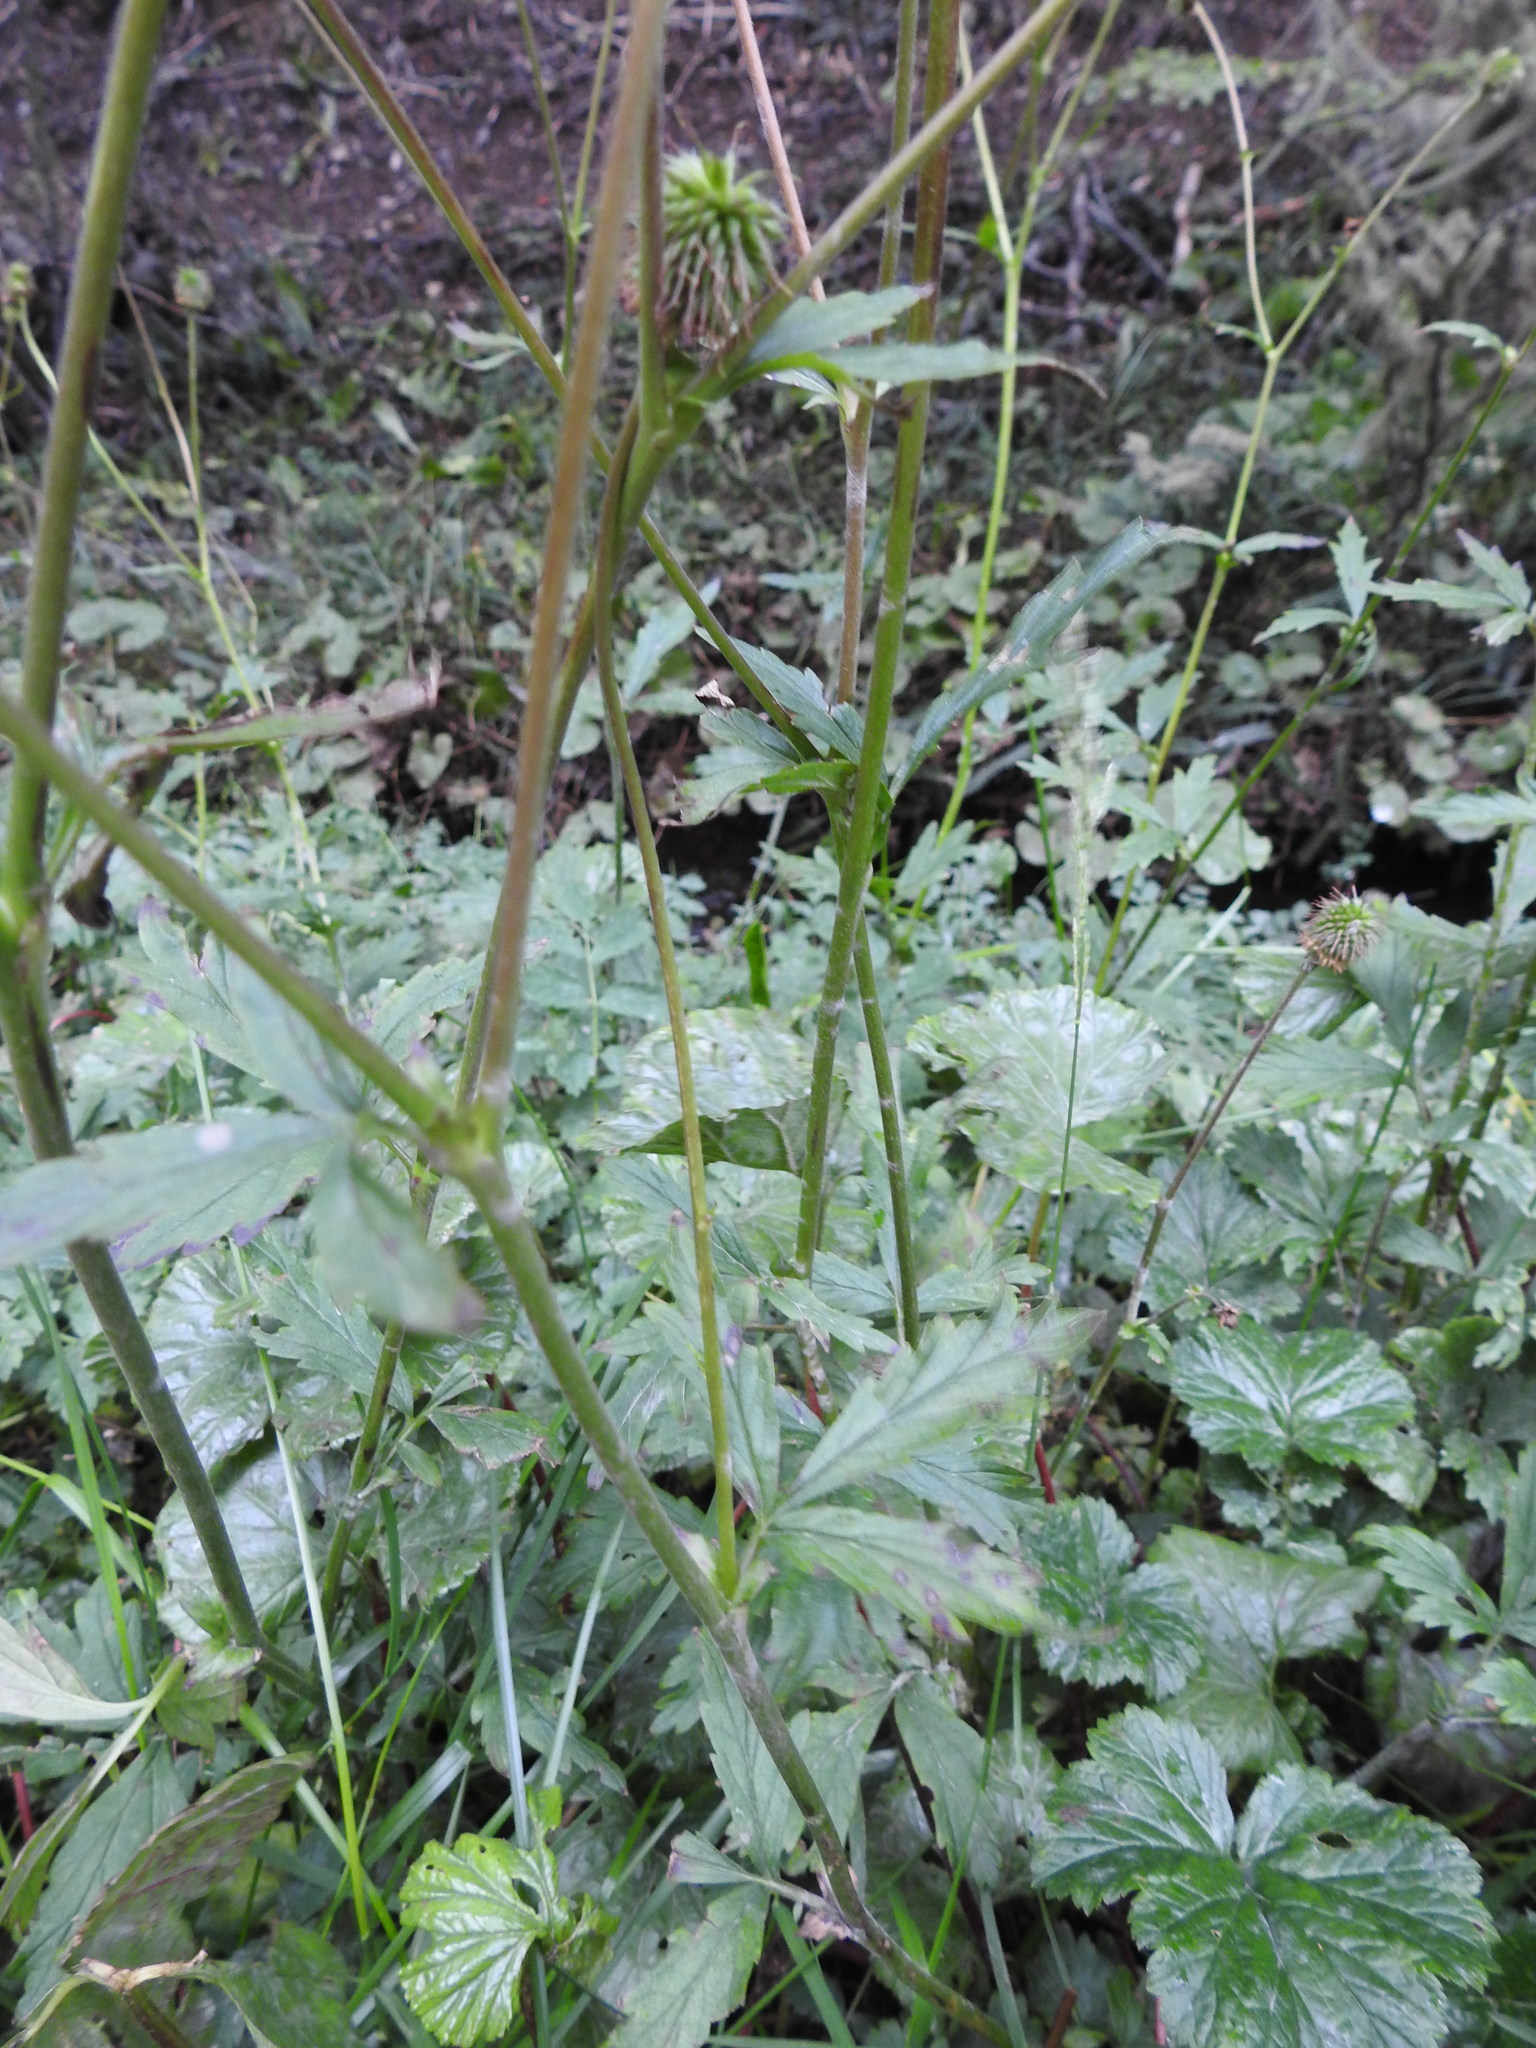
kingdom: Plantae
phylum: Tracheophyta
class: Magnoliopsida
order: Rosales
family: Rosaceae
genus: Geum
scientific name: Geum magellanicum
